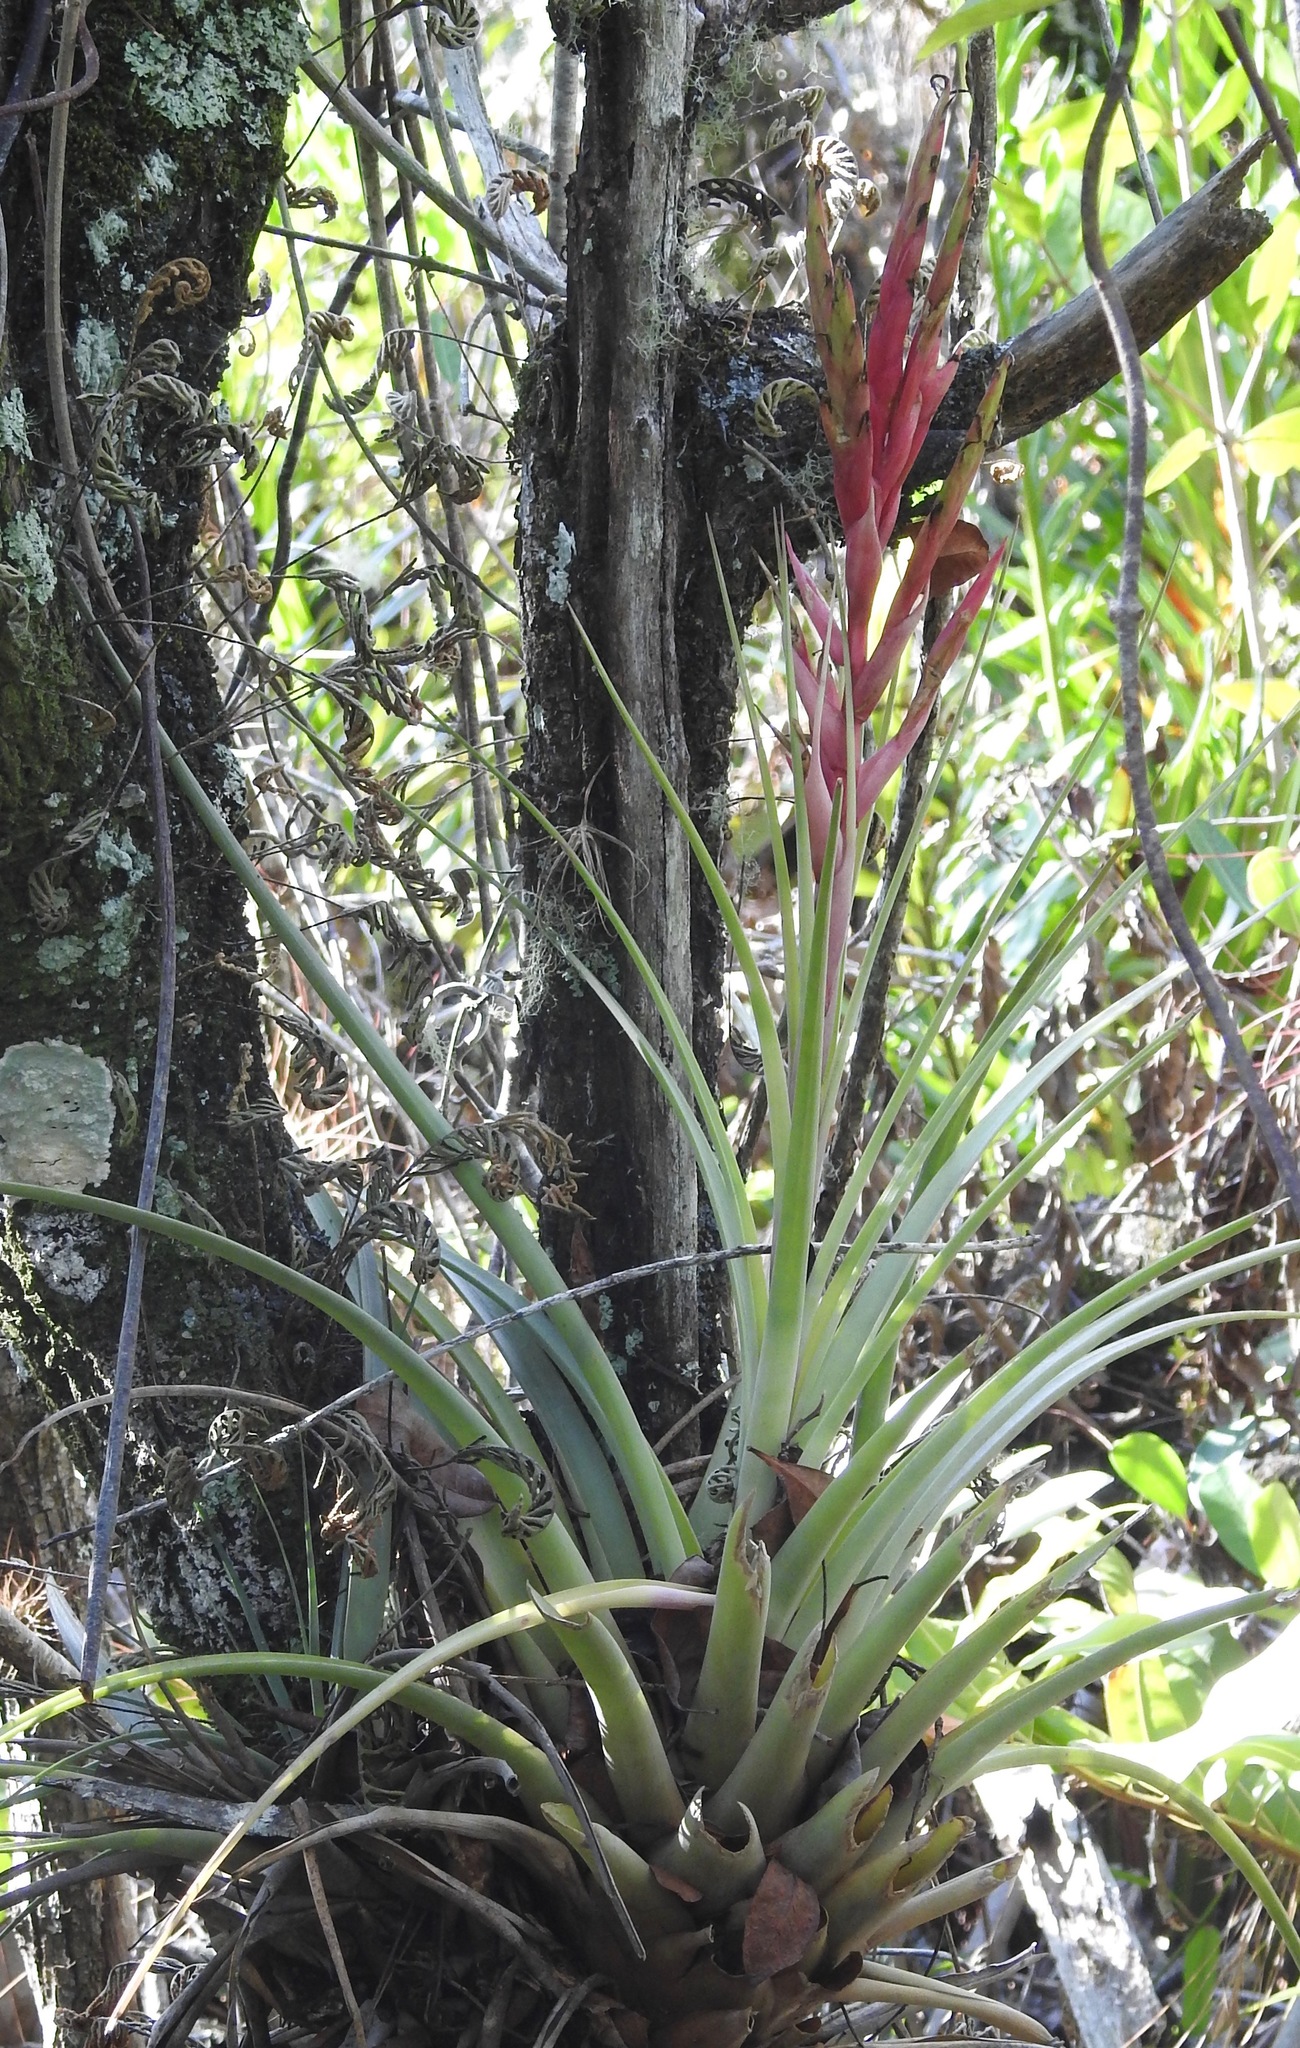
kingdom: Plantae
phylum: Tracheophyta
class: Liliopsida
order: Poales
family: Bromeliaceae
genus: Tillandsia
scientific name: Tillandsia fasciculata
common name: Giant airplant
